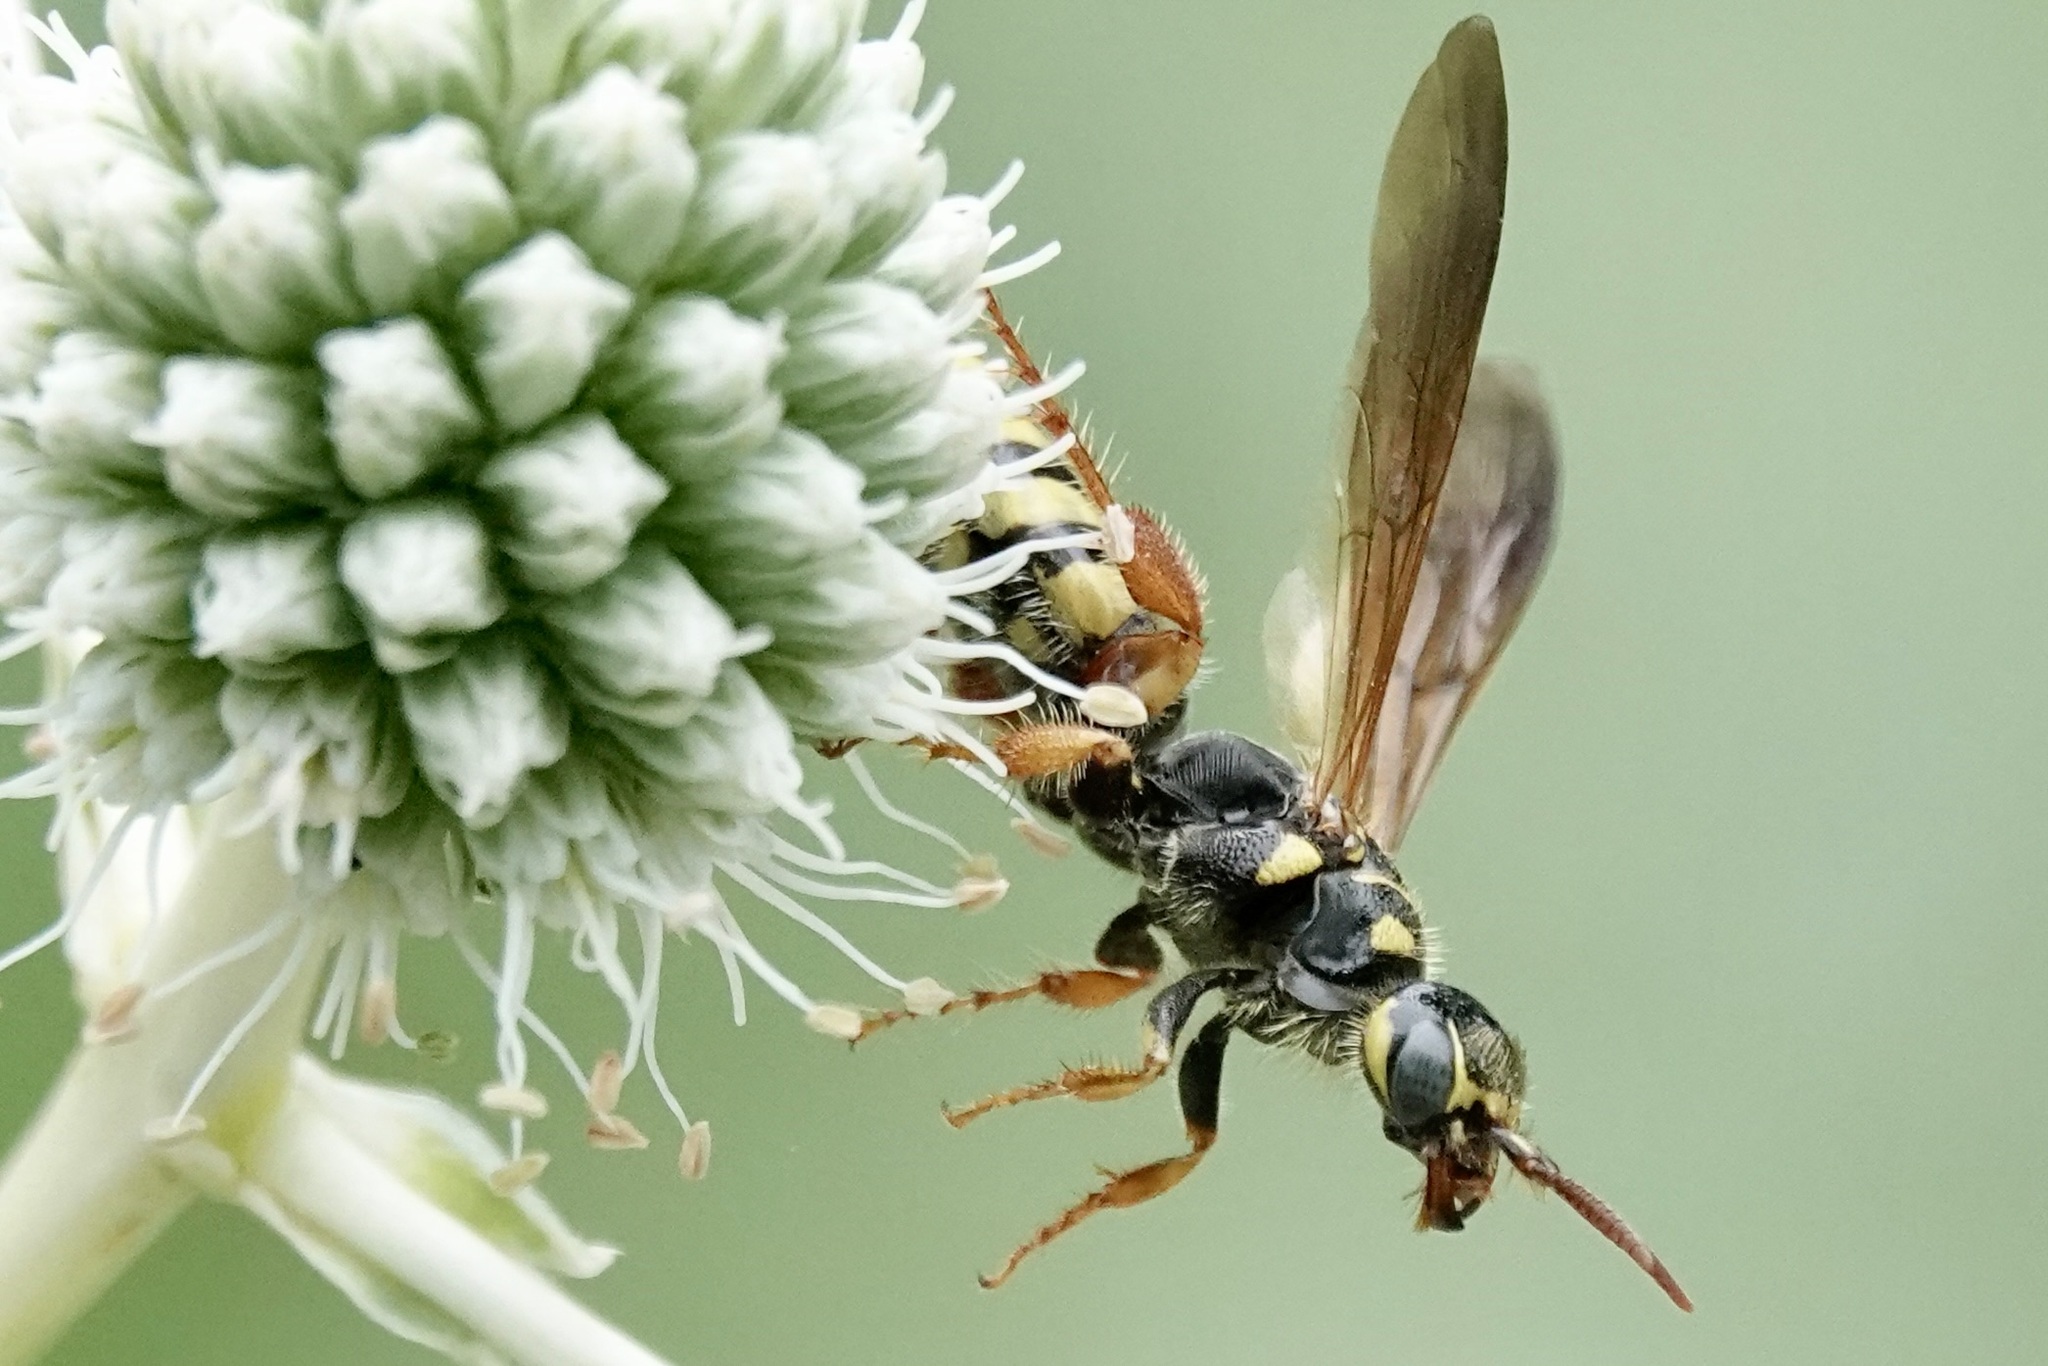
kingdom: Animalia
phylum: Arthropoda
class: Insecta
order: Hymenoptera
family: Tiphiidae
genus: Myzinum
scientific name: Myzinum quinquecinctum
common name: Five-banded thynnid wasp
